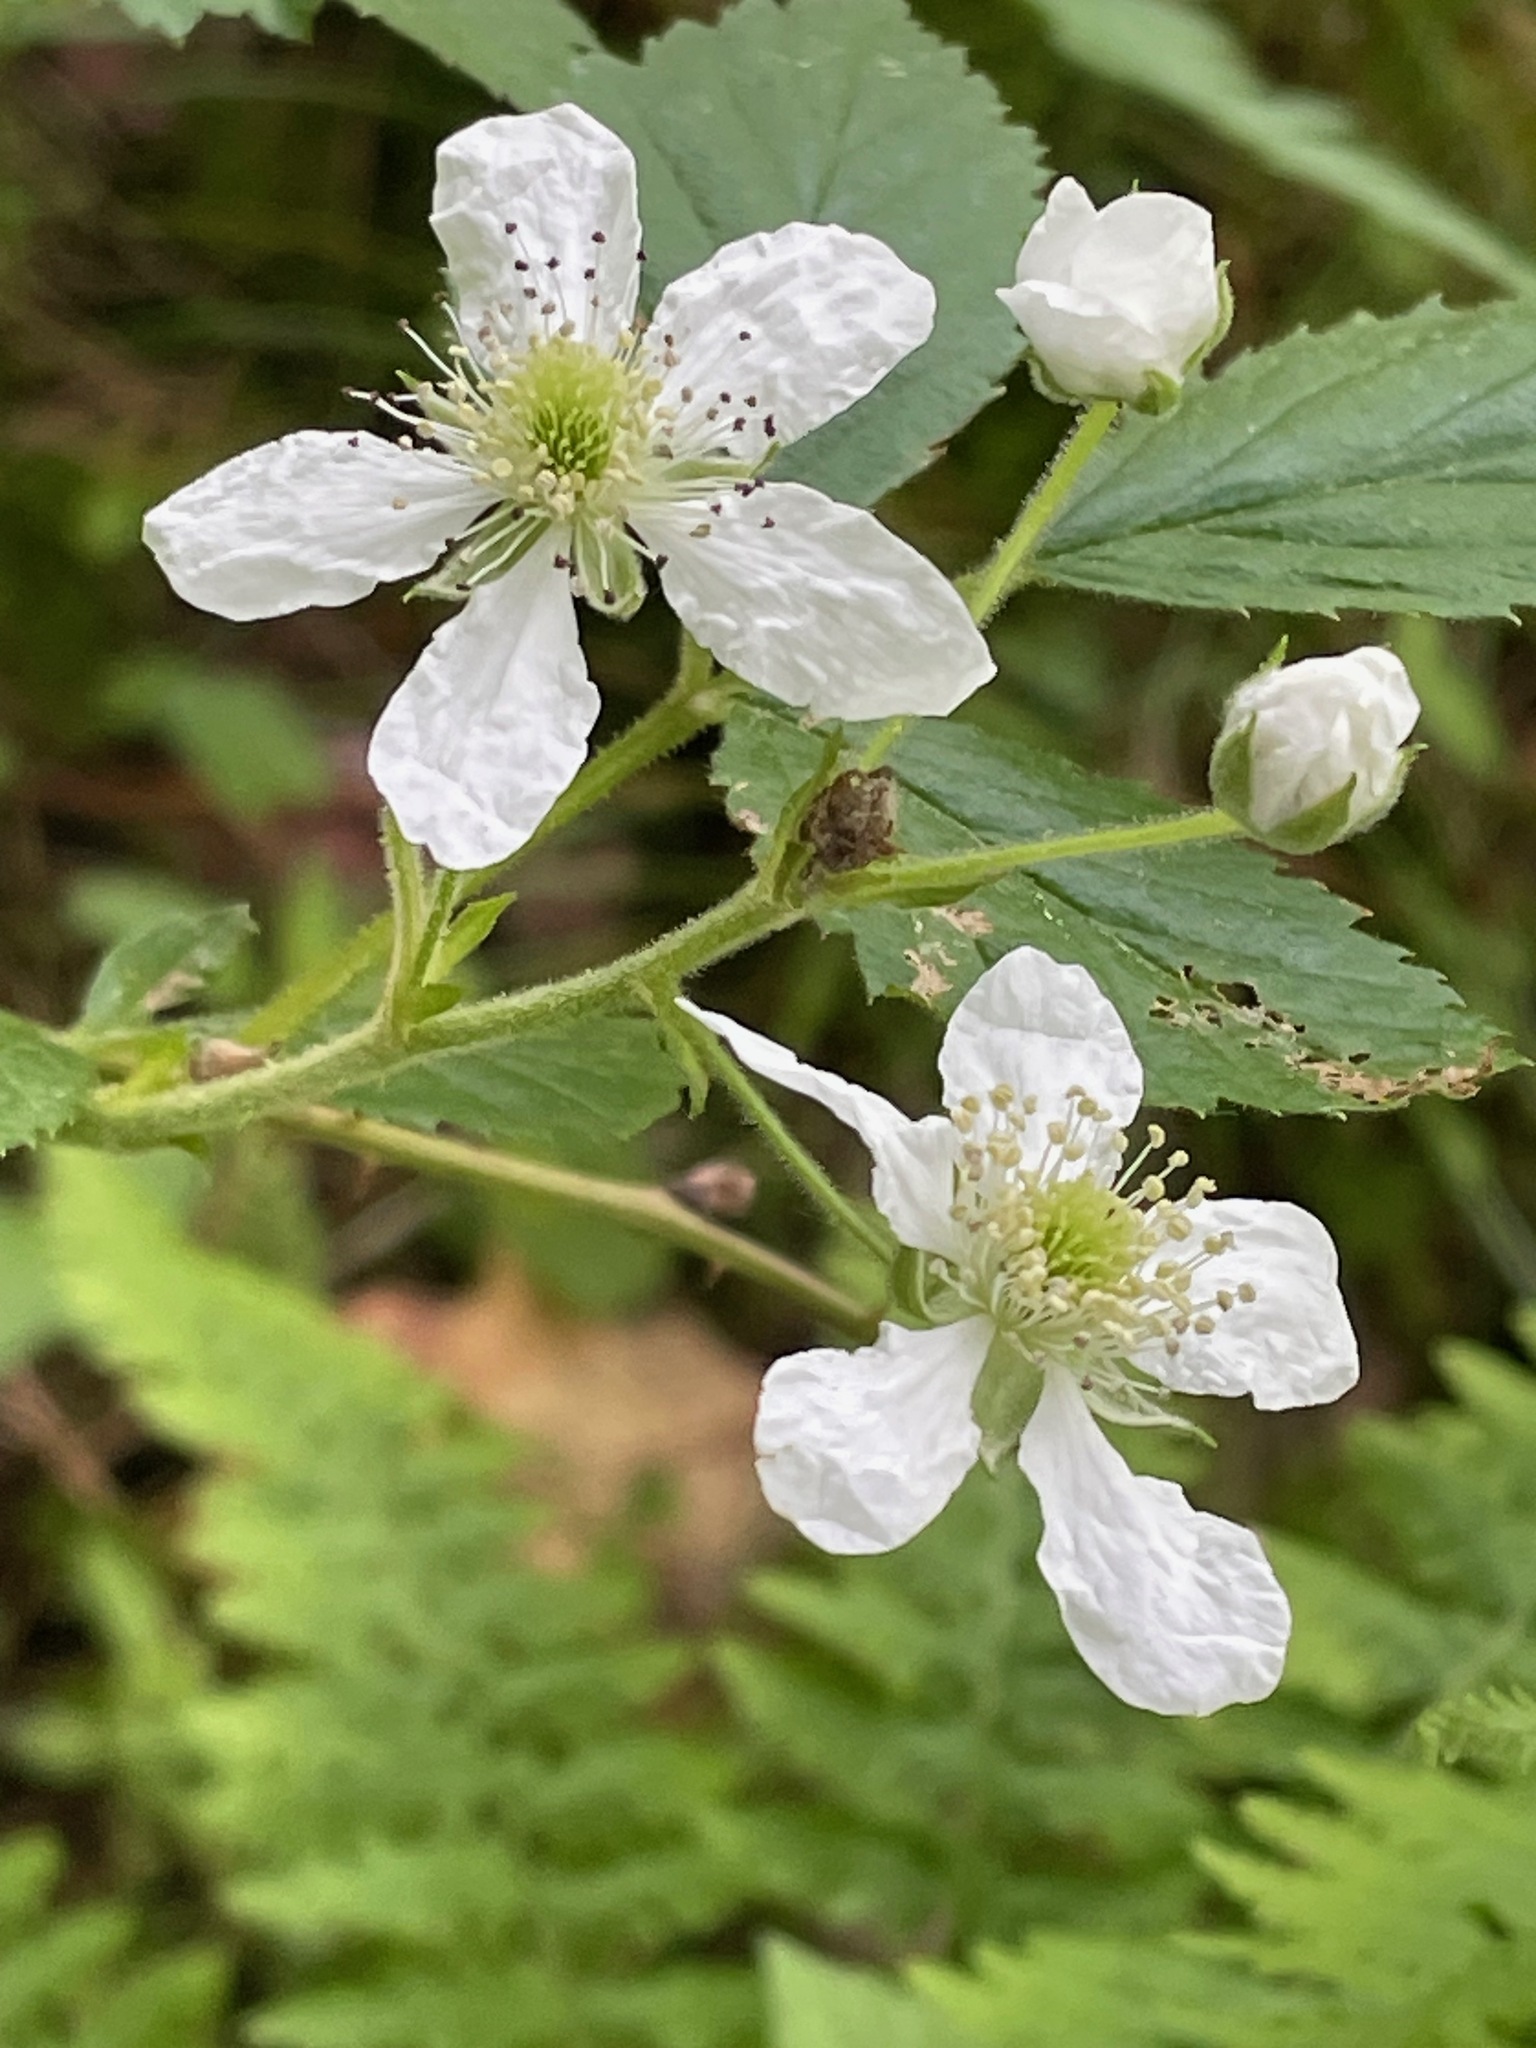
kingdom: Plantae
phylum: Tracheophyta
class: Magnoliopsida
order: Rosales
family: Rosaceae
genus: Rubus
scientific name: Rubus allegheniensis
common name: Allegheny blackberry
